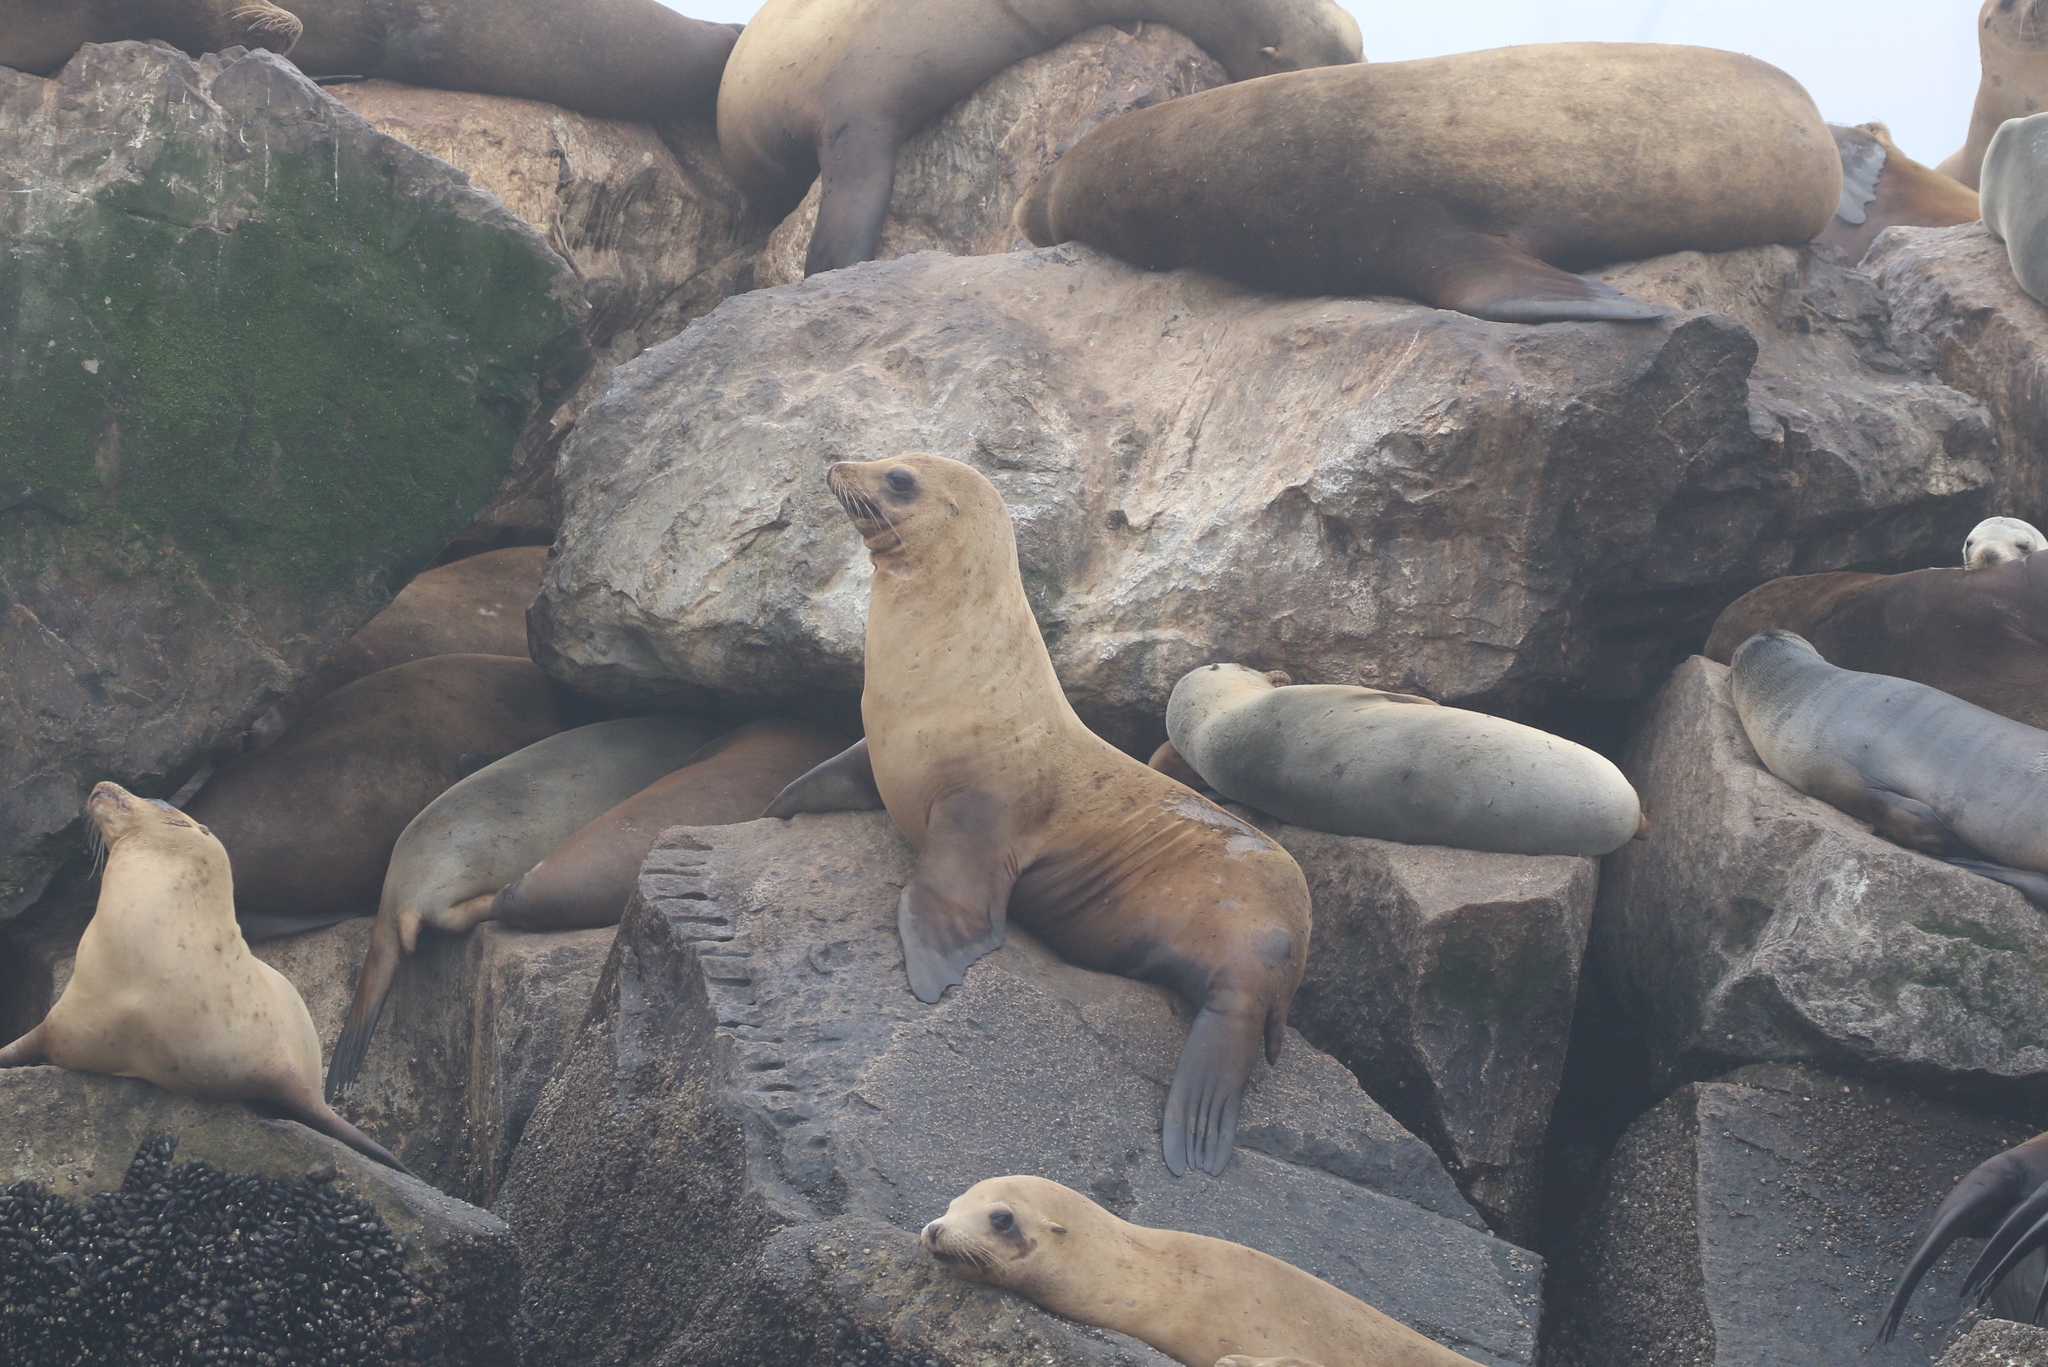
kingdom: Animalia
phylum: Chordata
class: Mammalia
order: Carnivora
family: Otariidae
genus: Zalophus
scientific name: Zalophus californianus
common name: California sea lion
